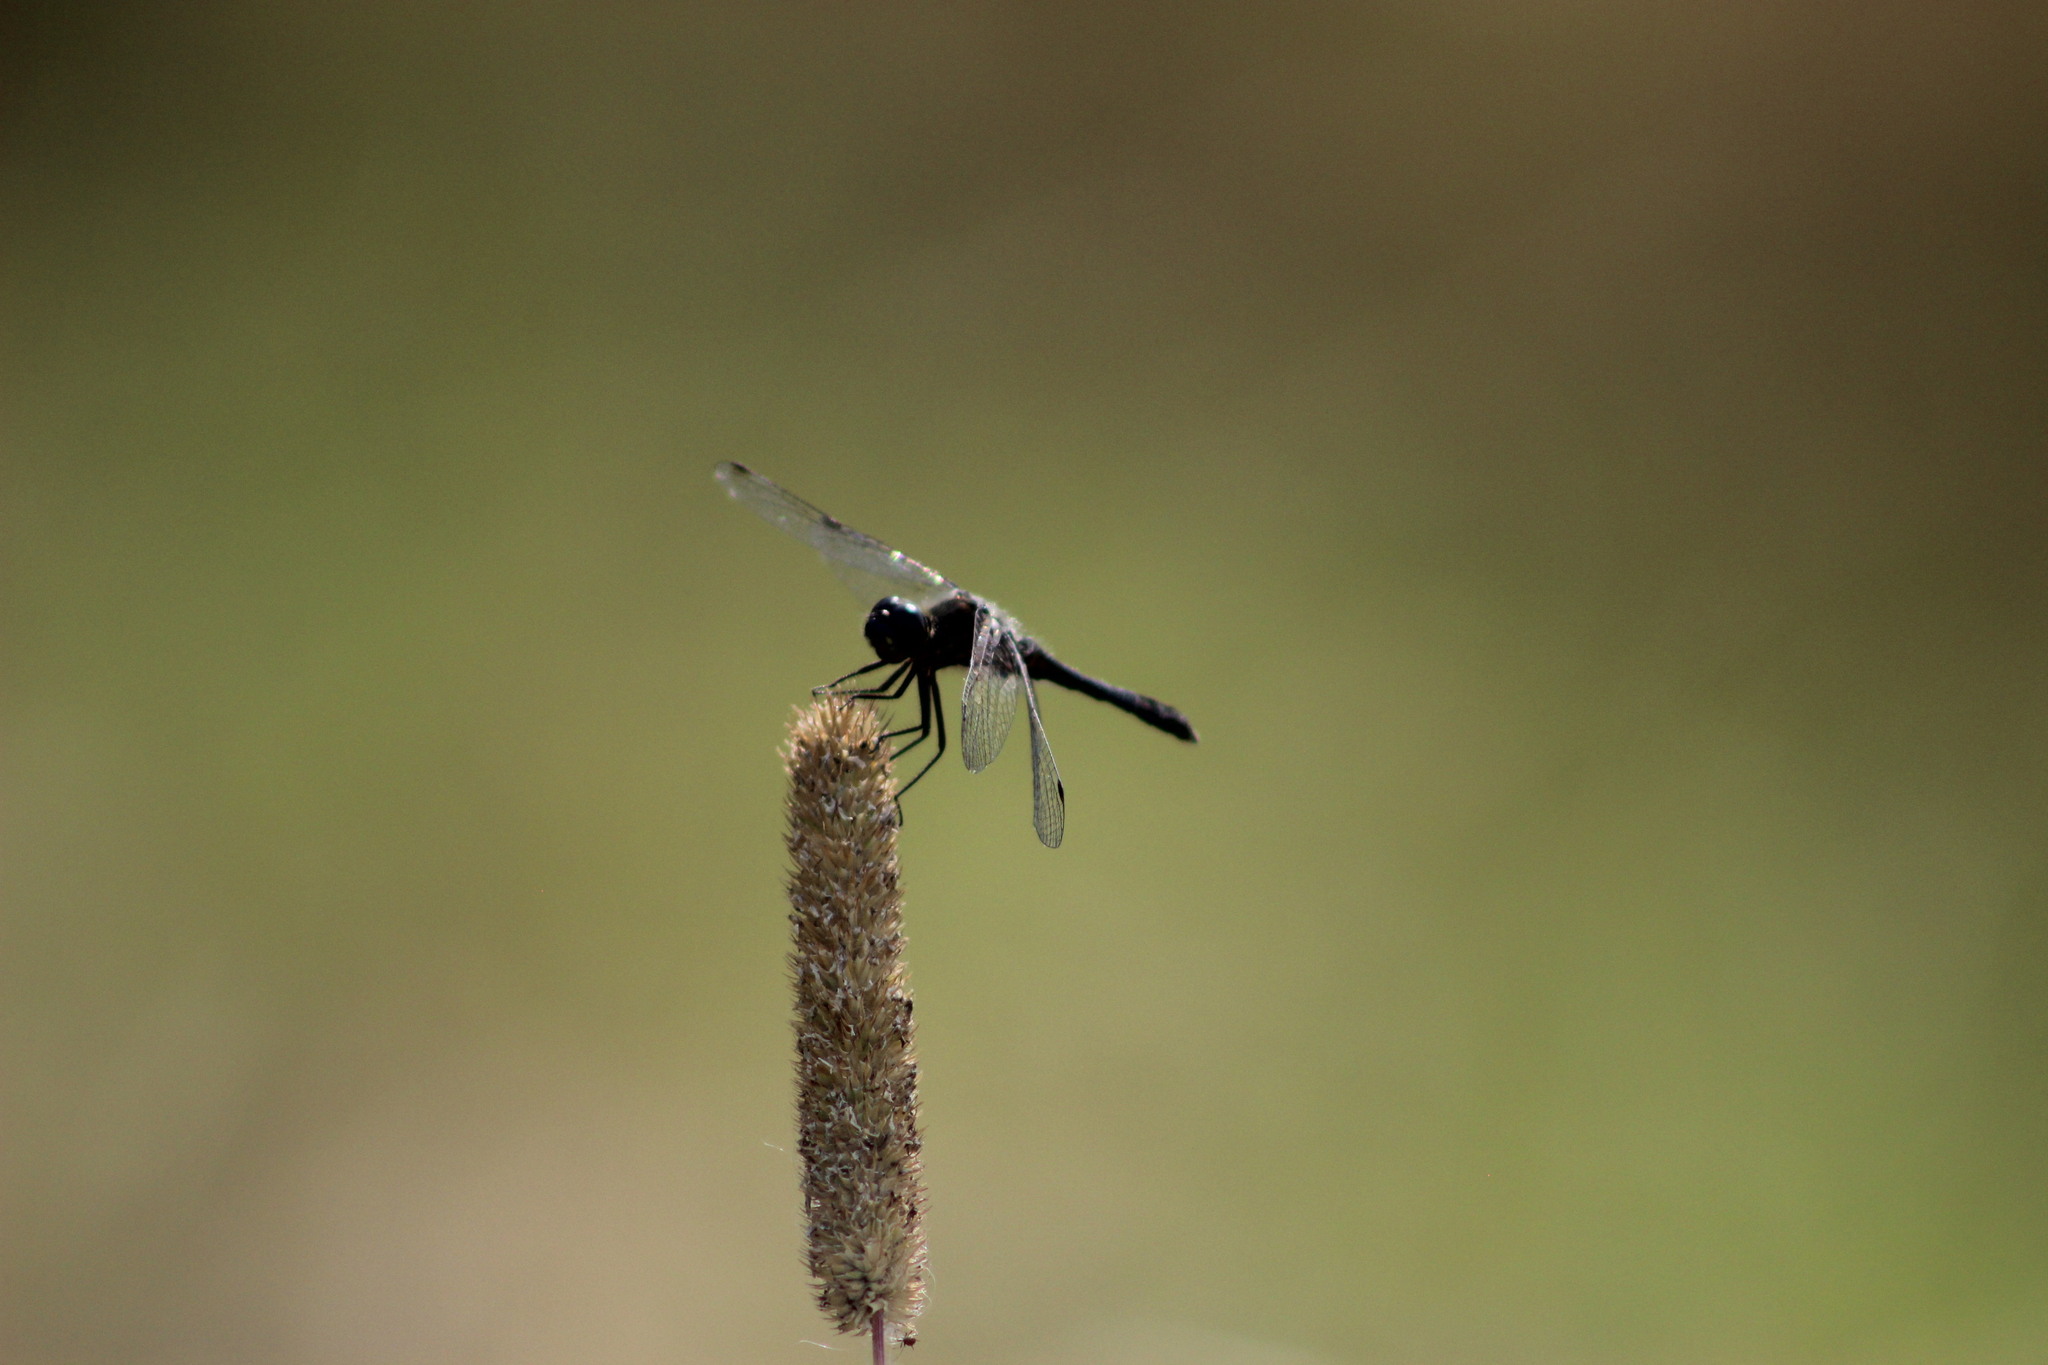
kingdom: Animalia
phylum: Arthropoda
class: Insecta
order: Odonata
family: Libellulidae
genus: Sympetrum
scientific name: Sympetrum danae
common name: Black darter
